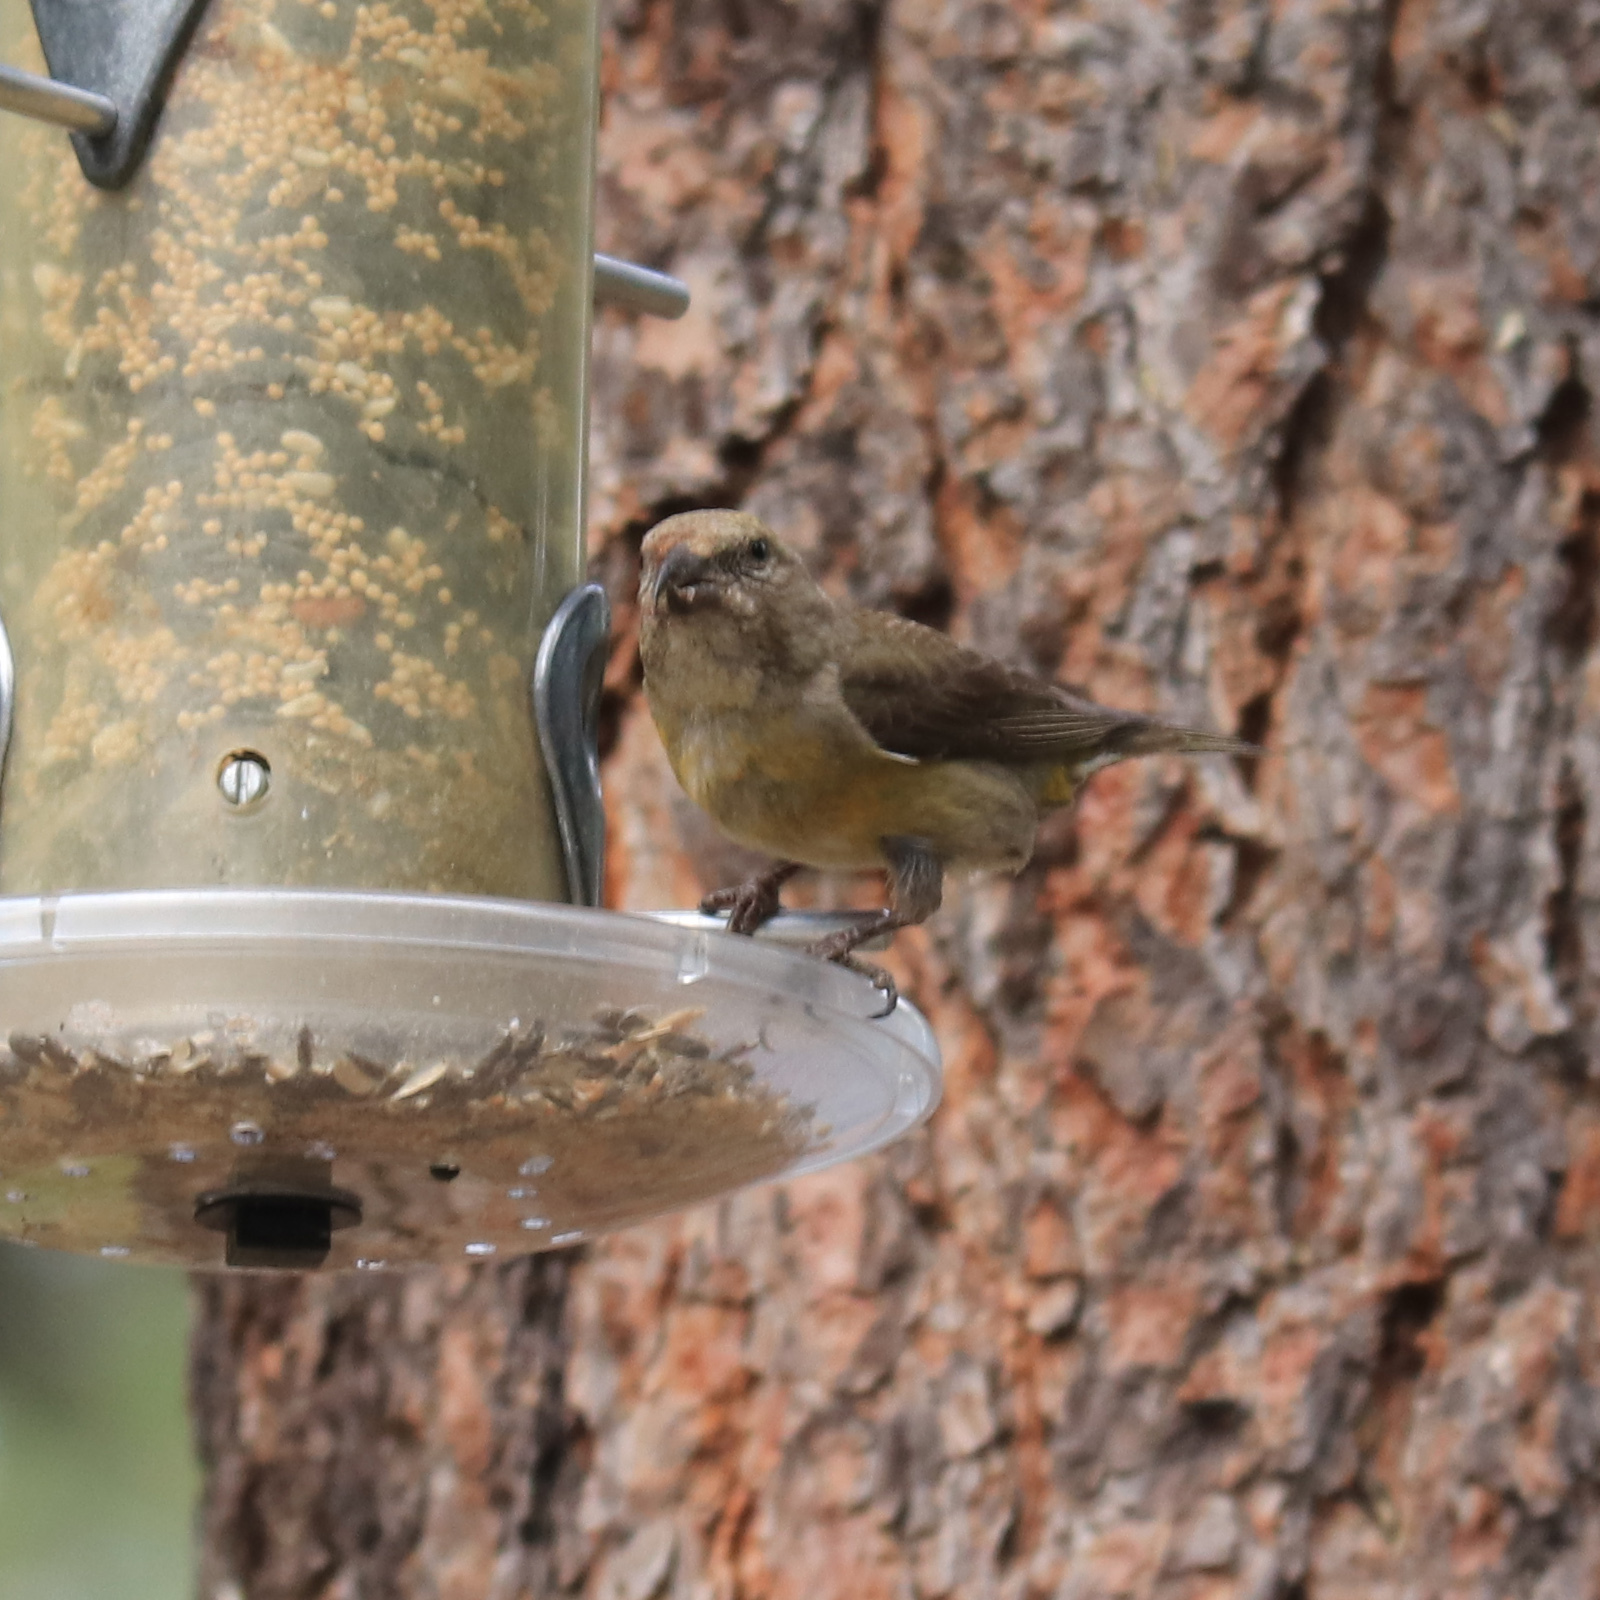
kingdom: Animalia
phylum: Chordata
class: Aves
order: Passeriformes
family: Fringillidae
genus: Loxia
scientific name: Loxia curvirostra
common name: Red crossbill
